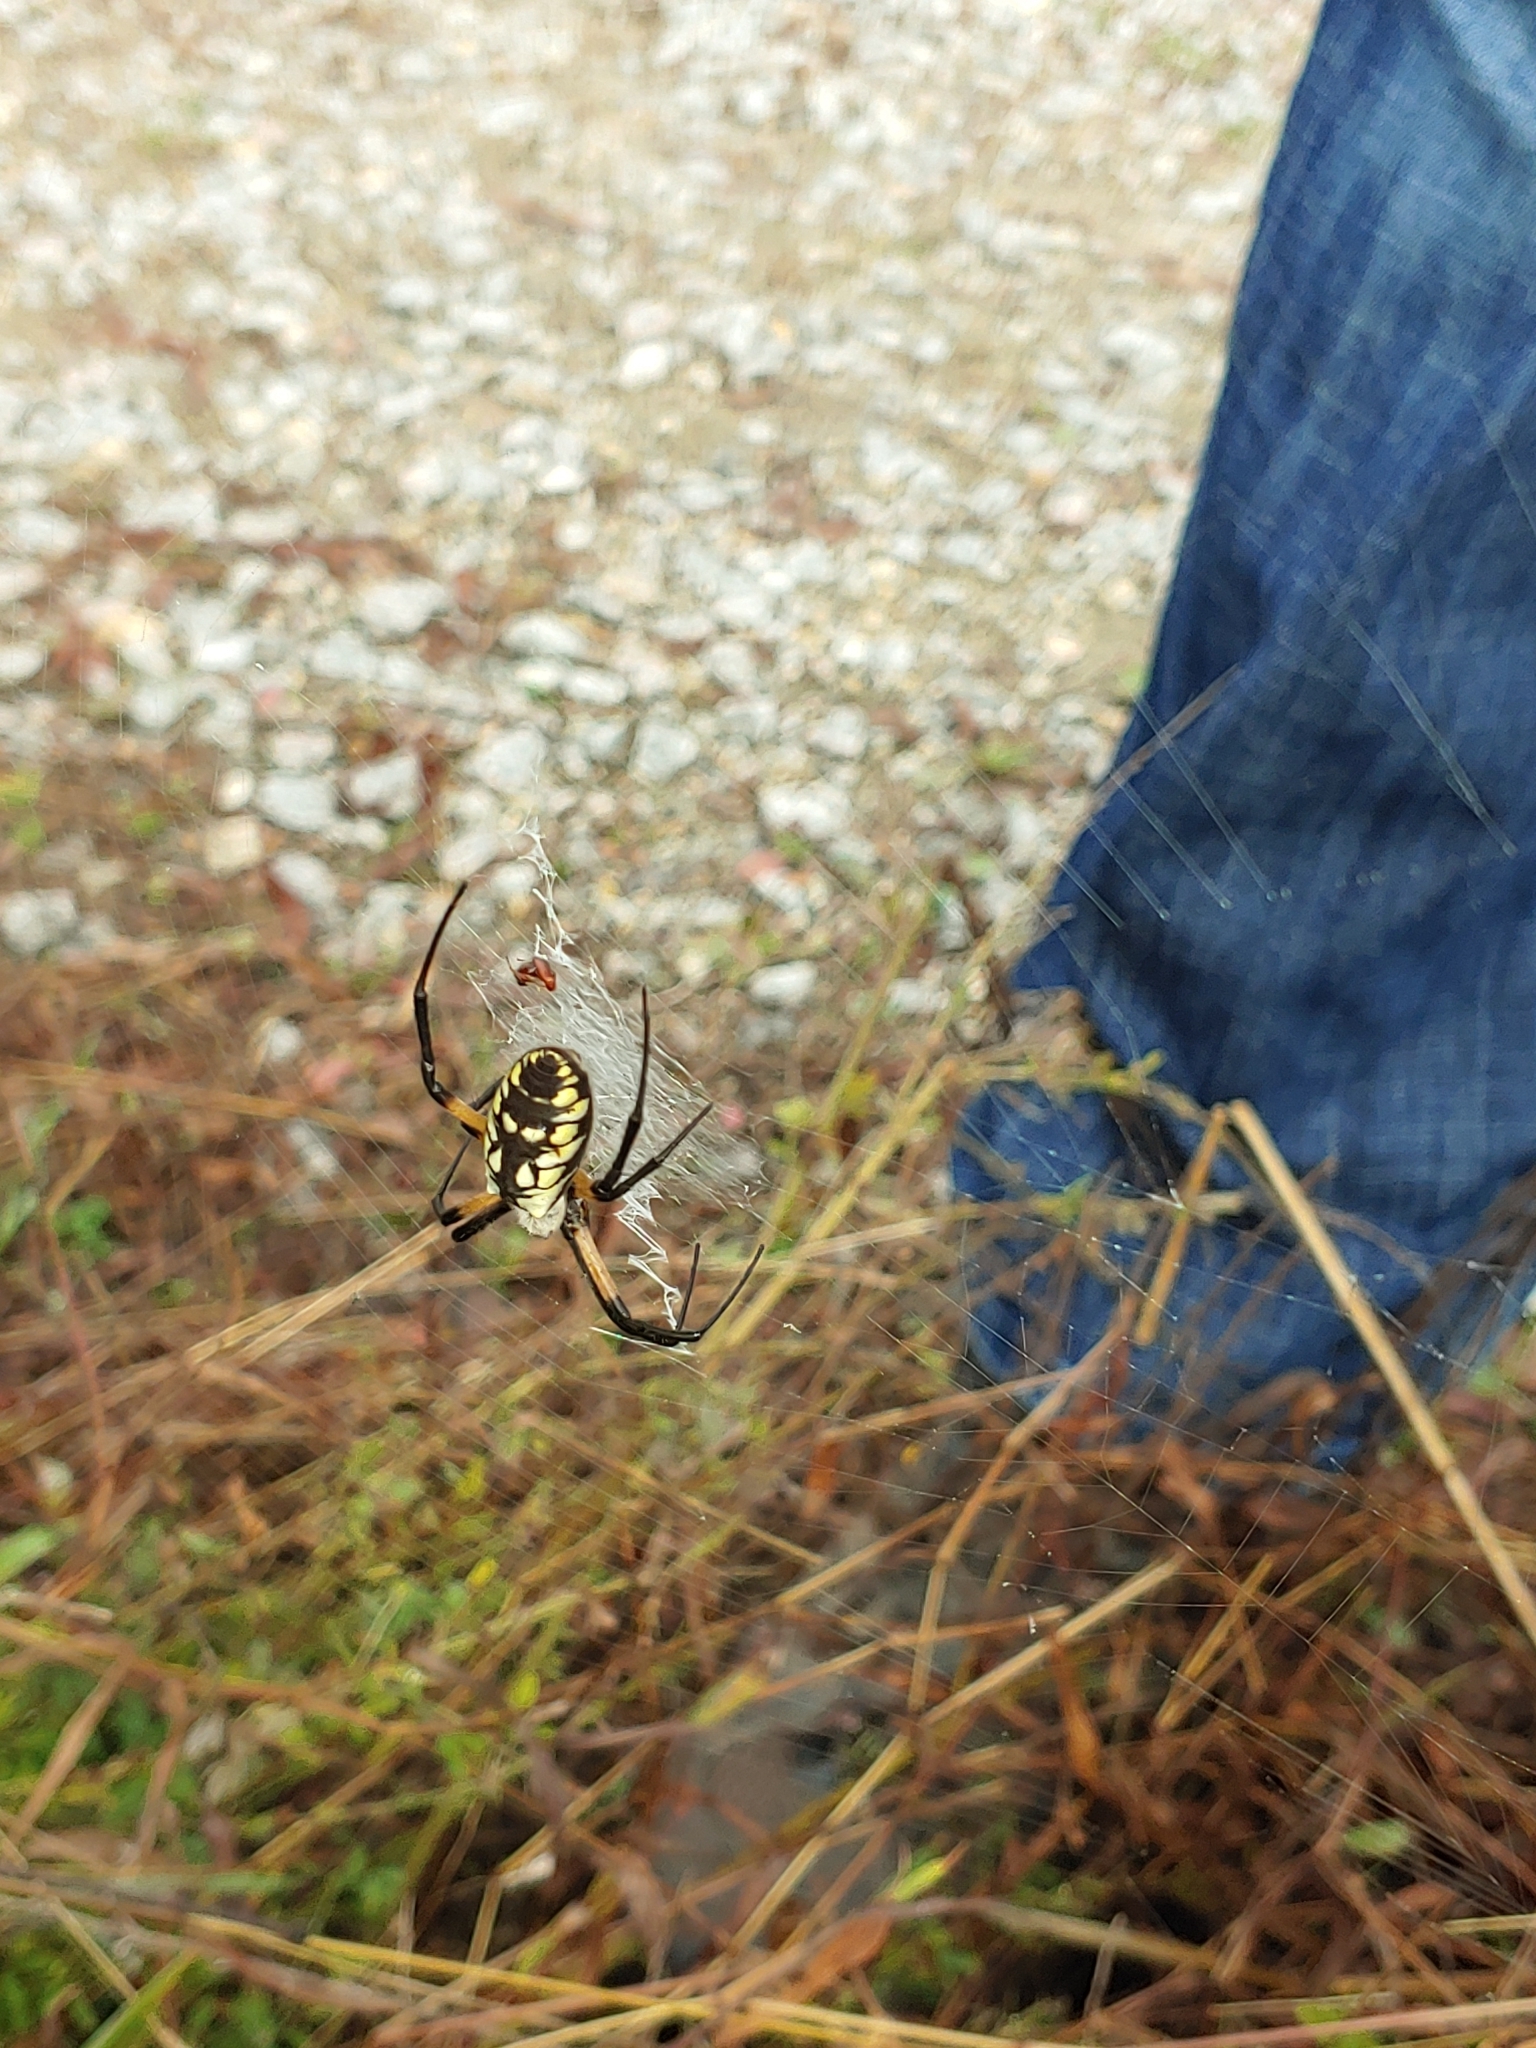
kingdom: Animalia
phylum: Arthropoda
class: Arachnida
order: Araneae
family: Araneidae
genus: Argiope
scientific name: Argiope aurantia
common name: Orb weavers
